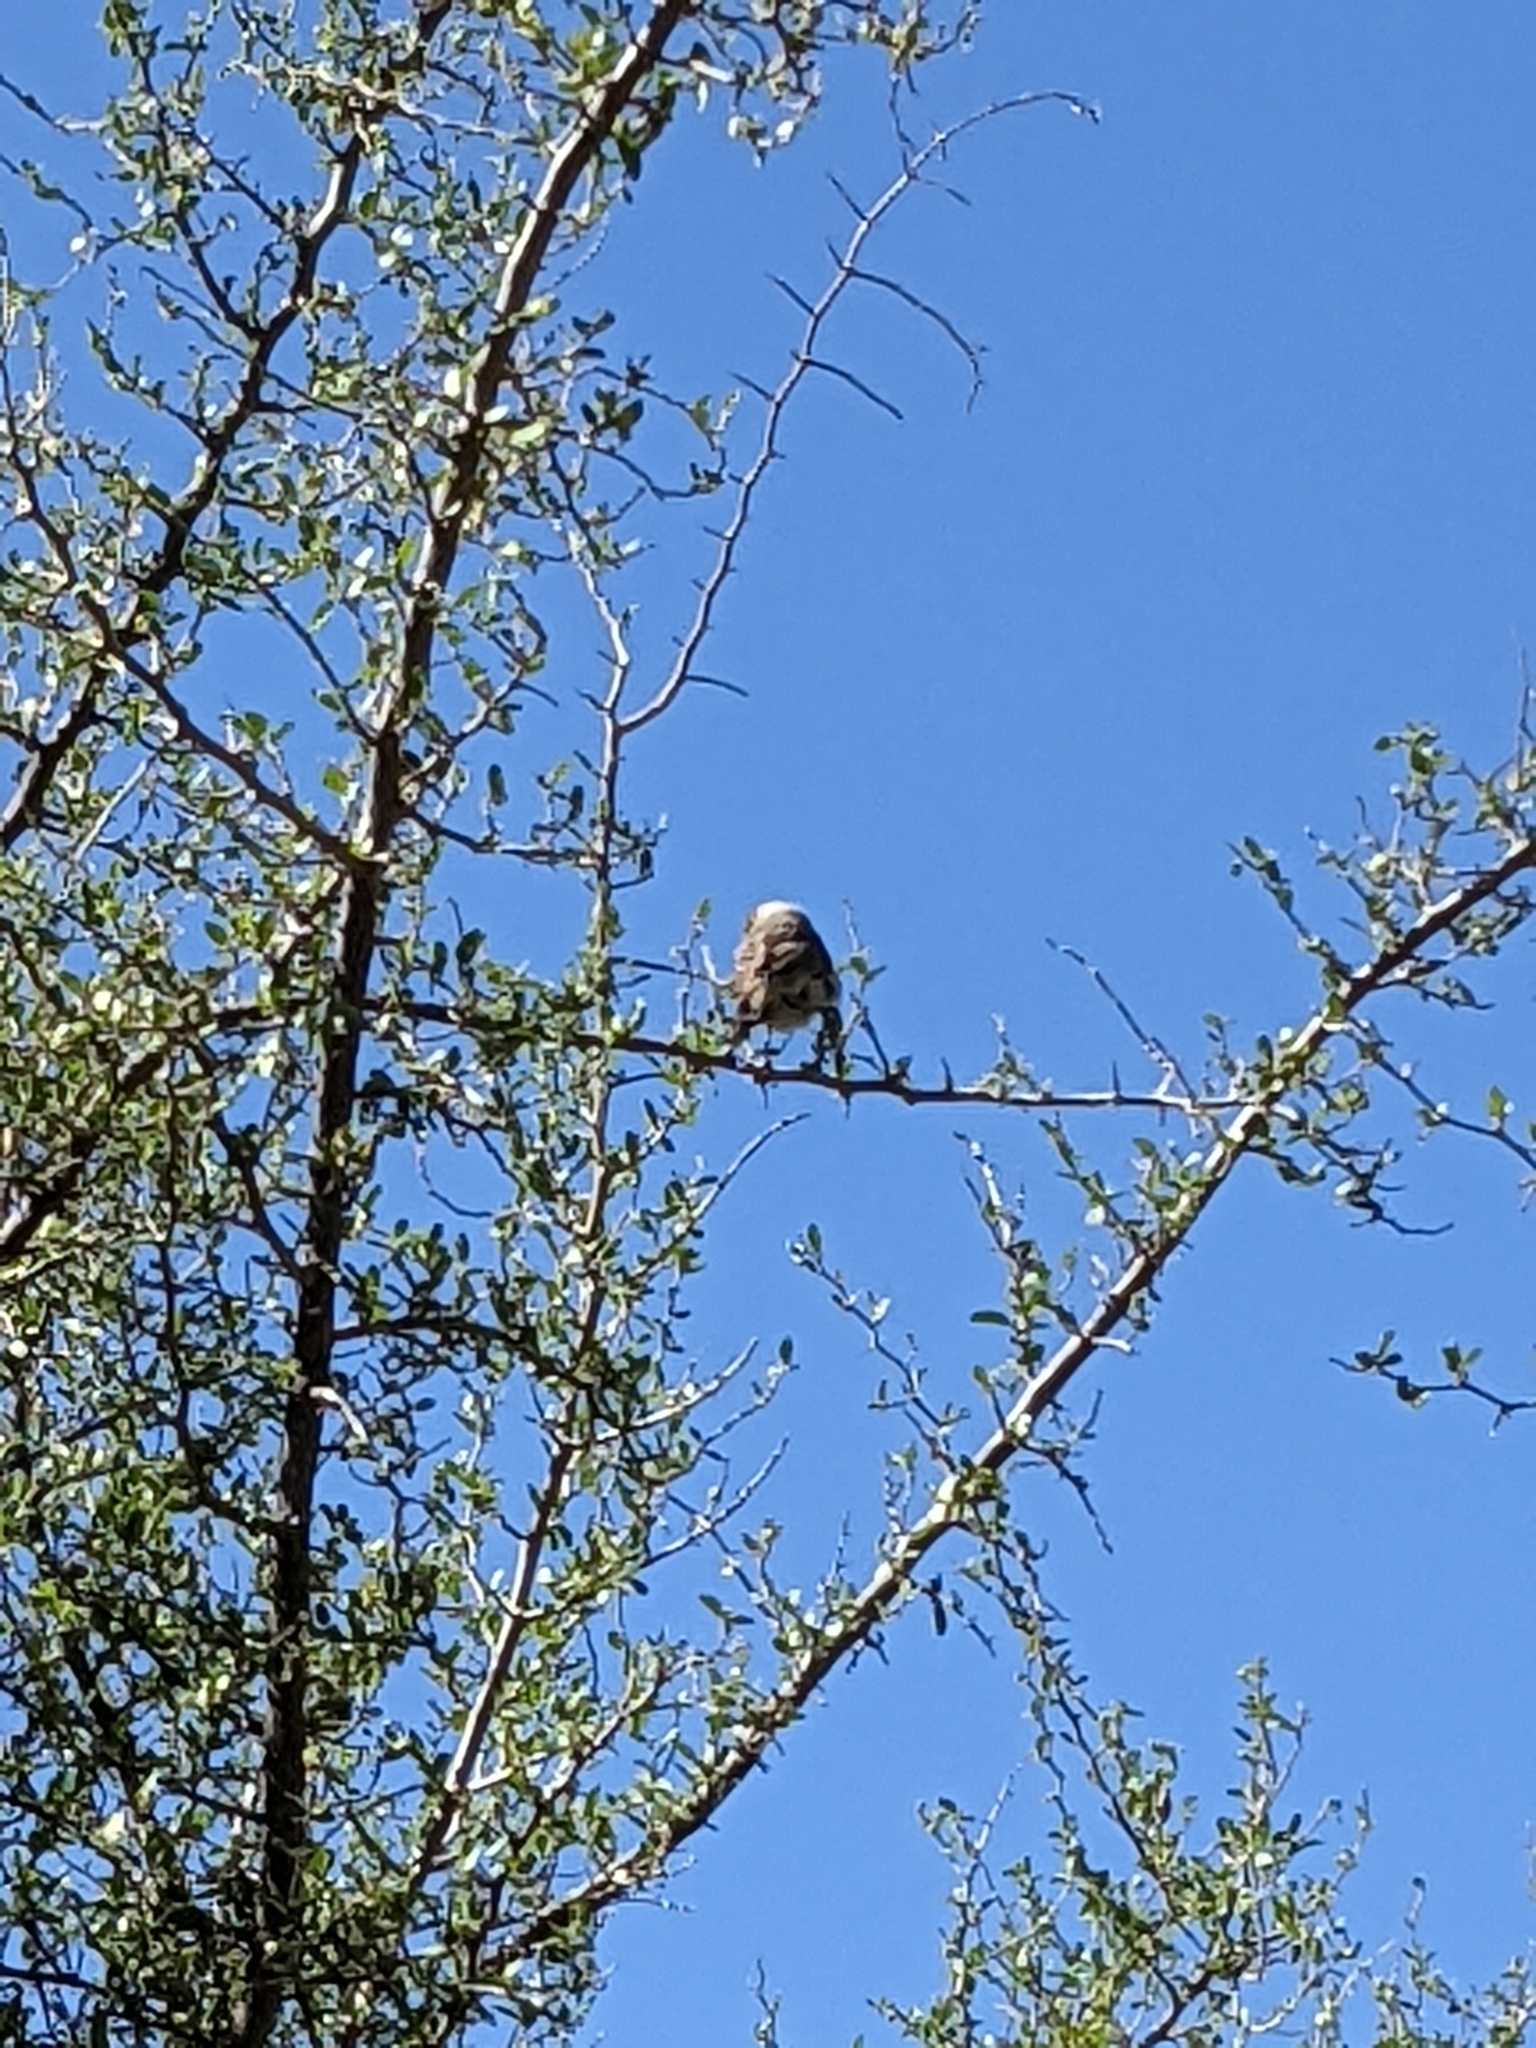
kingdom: Animalia
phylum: Chordata
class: Aves
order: Passeriformes
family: Remizidae
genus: Auriparus
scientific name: Auriparus flaviceps
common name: Verdin
